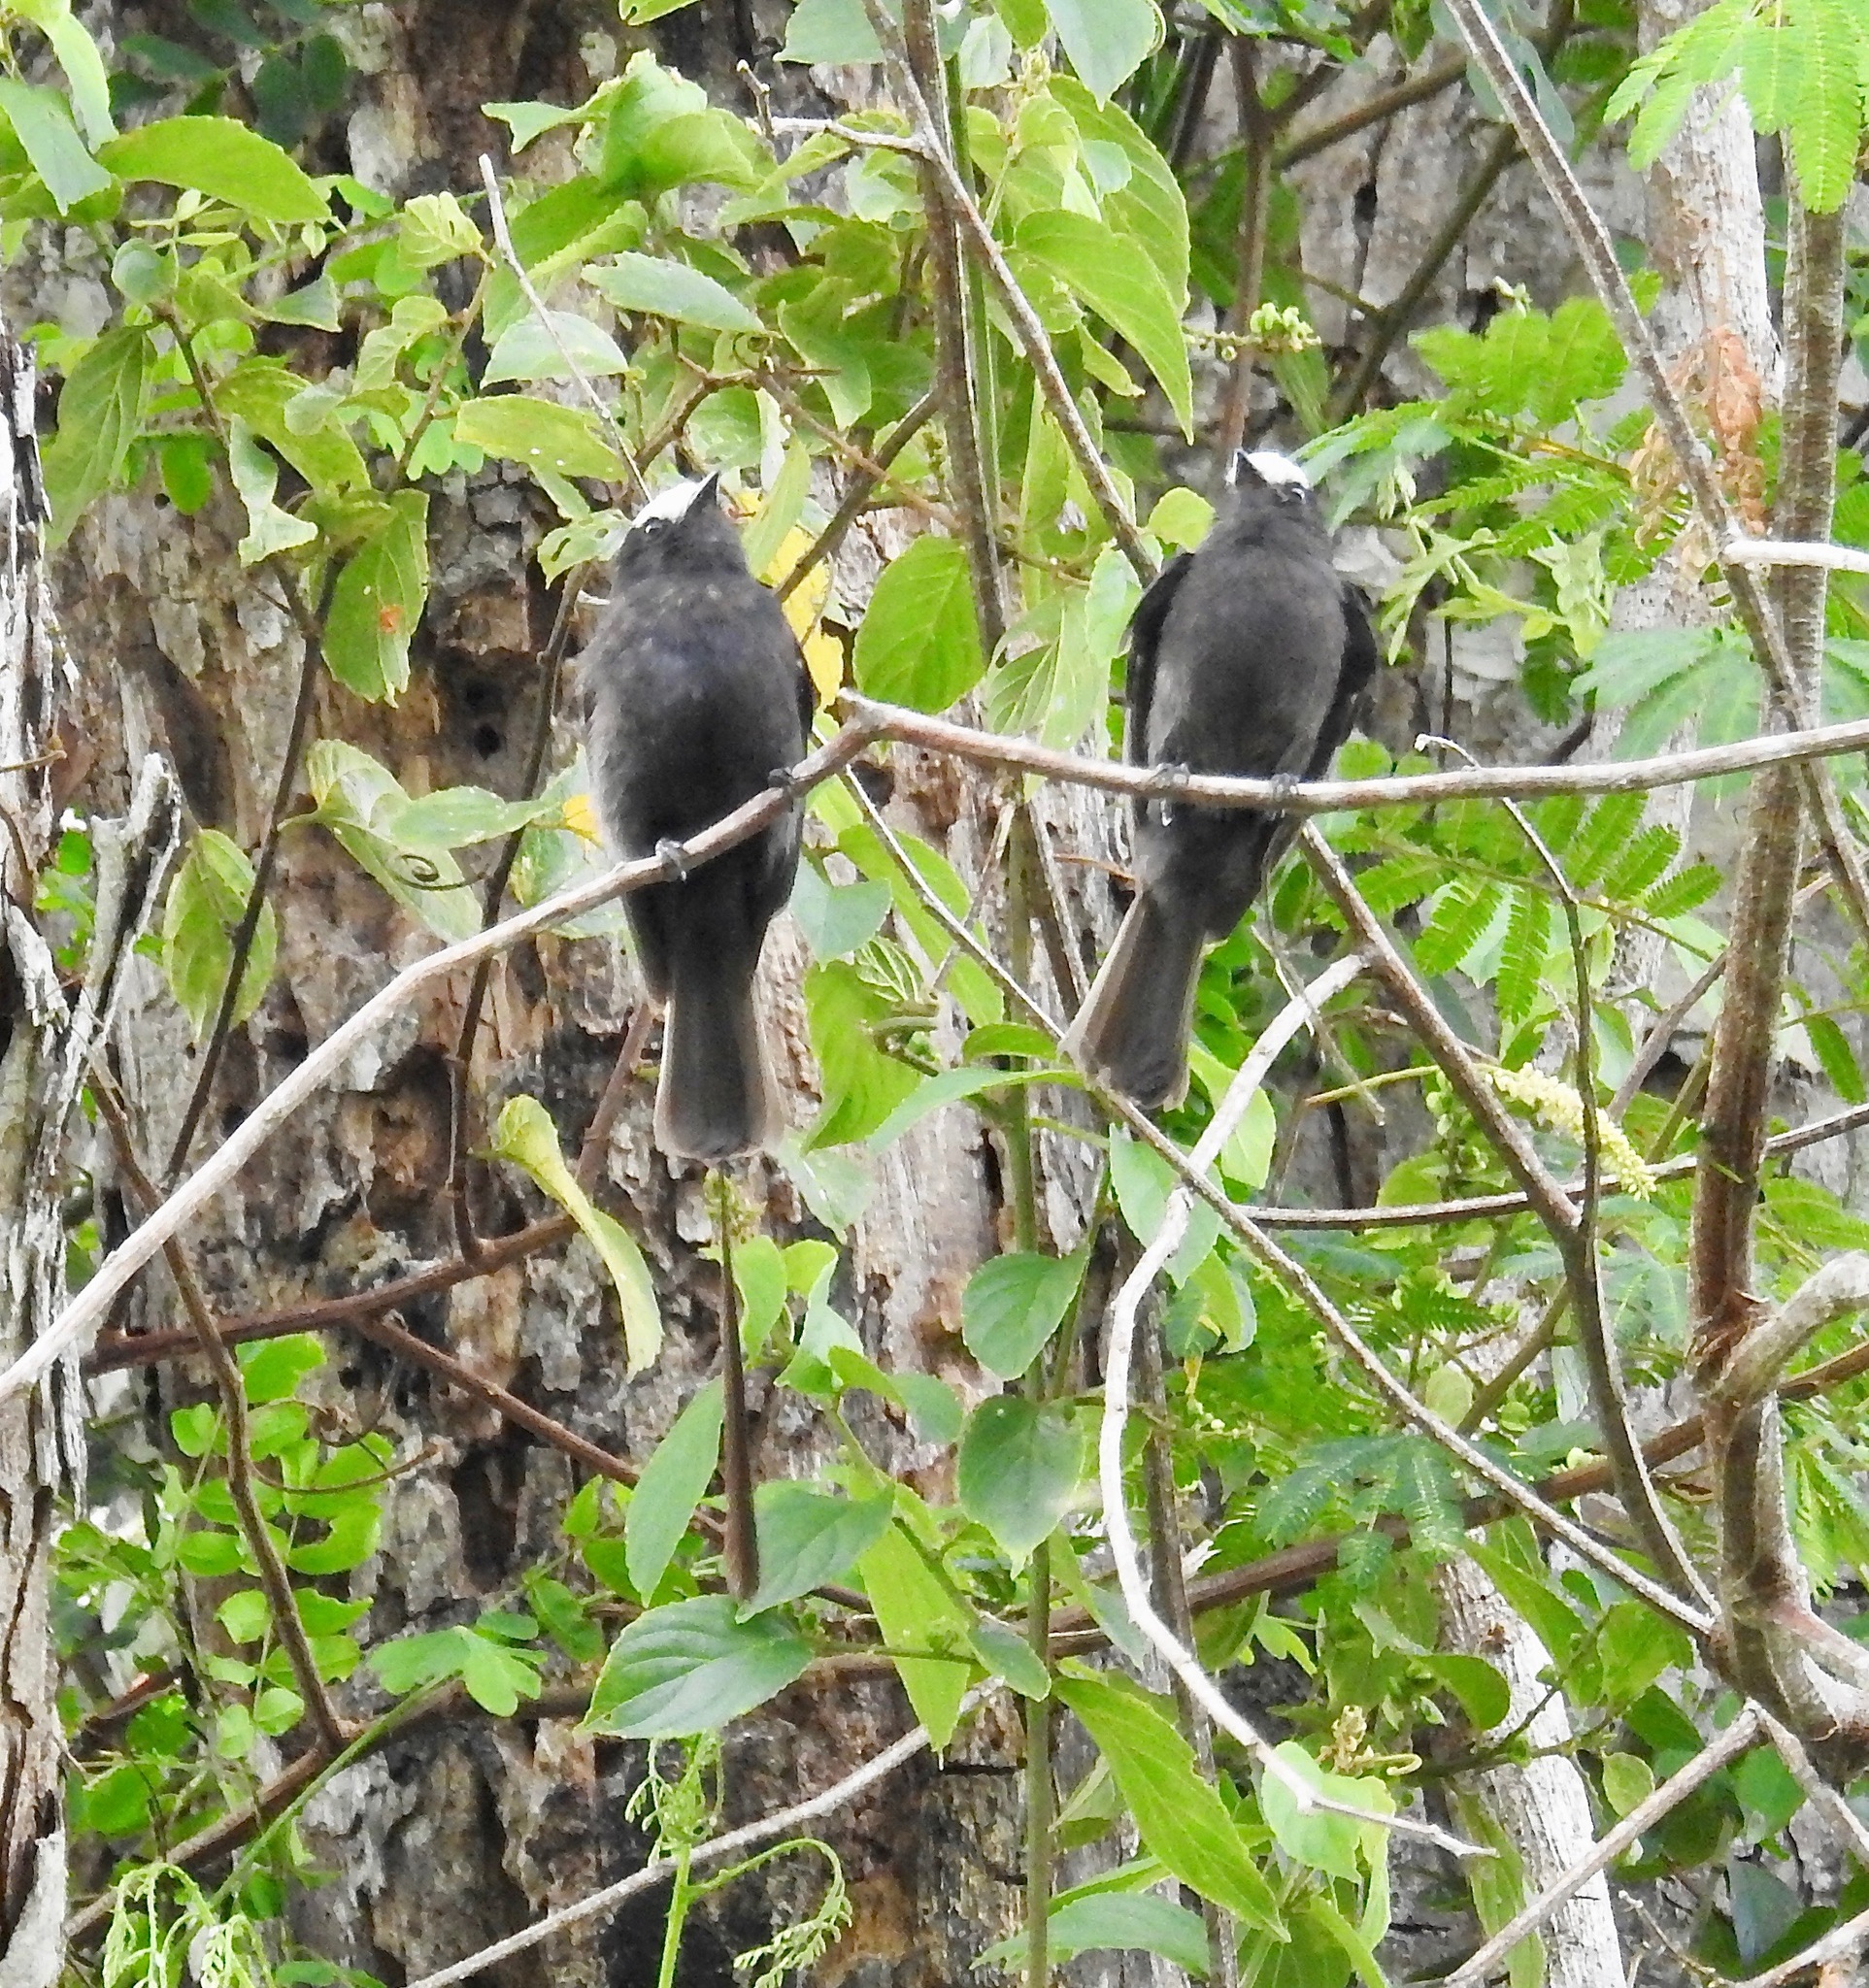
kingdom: Animalia
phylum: Chordata
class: Aves
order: Passeriformes
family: Tyrannidae
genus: Colonia
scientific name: Colonia colonus
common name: Long-tailed tyrant
